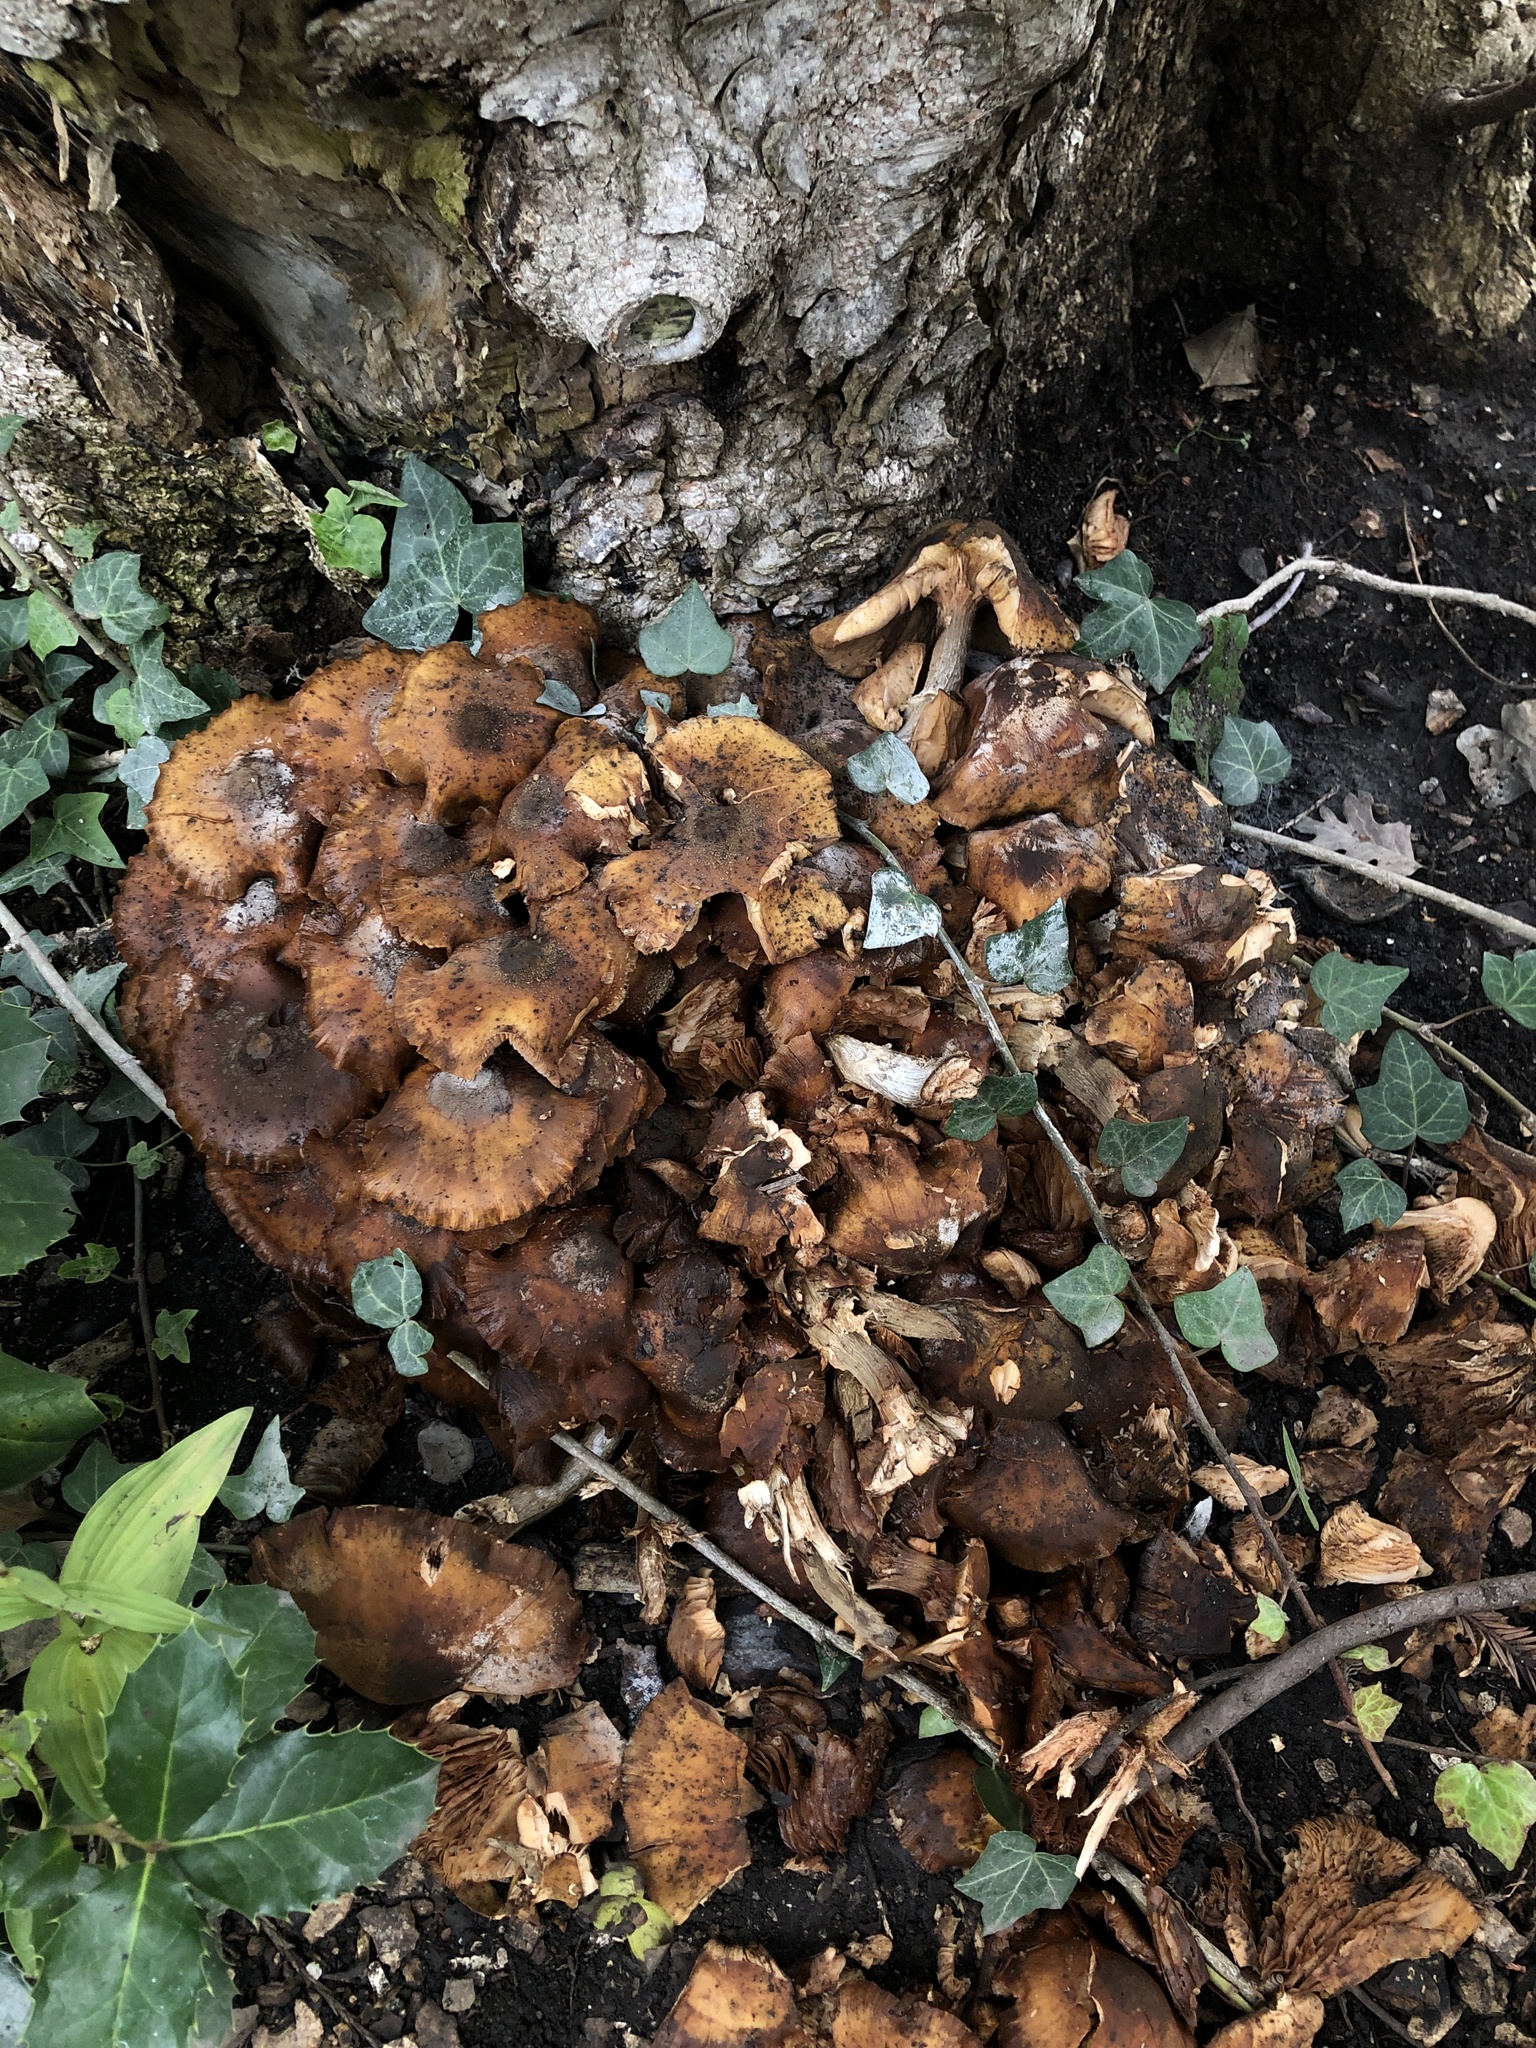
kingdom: Fungi
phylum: Basidiomycota
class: Agaricomycetes
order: Agaricales
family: Physalacriaceae
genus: Armillaria
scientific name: Armillaria mellea
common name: Honey fungus
